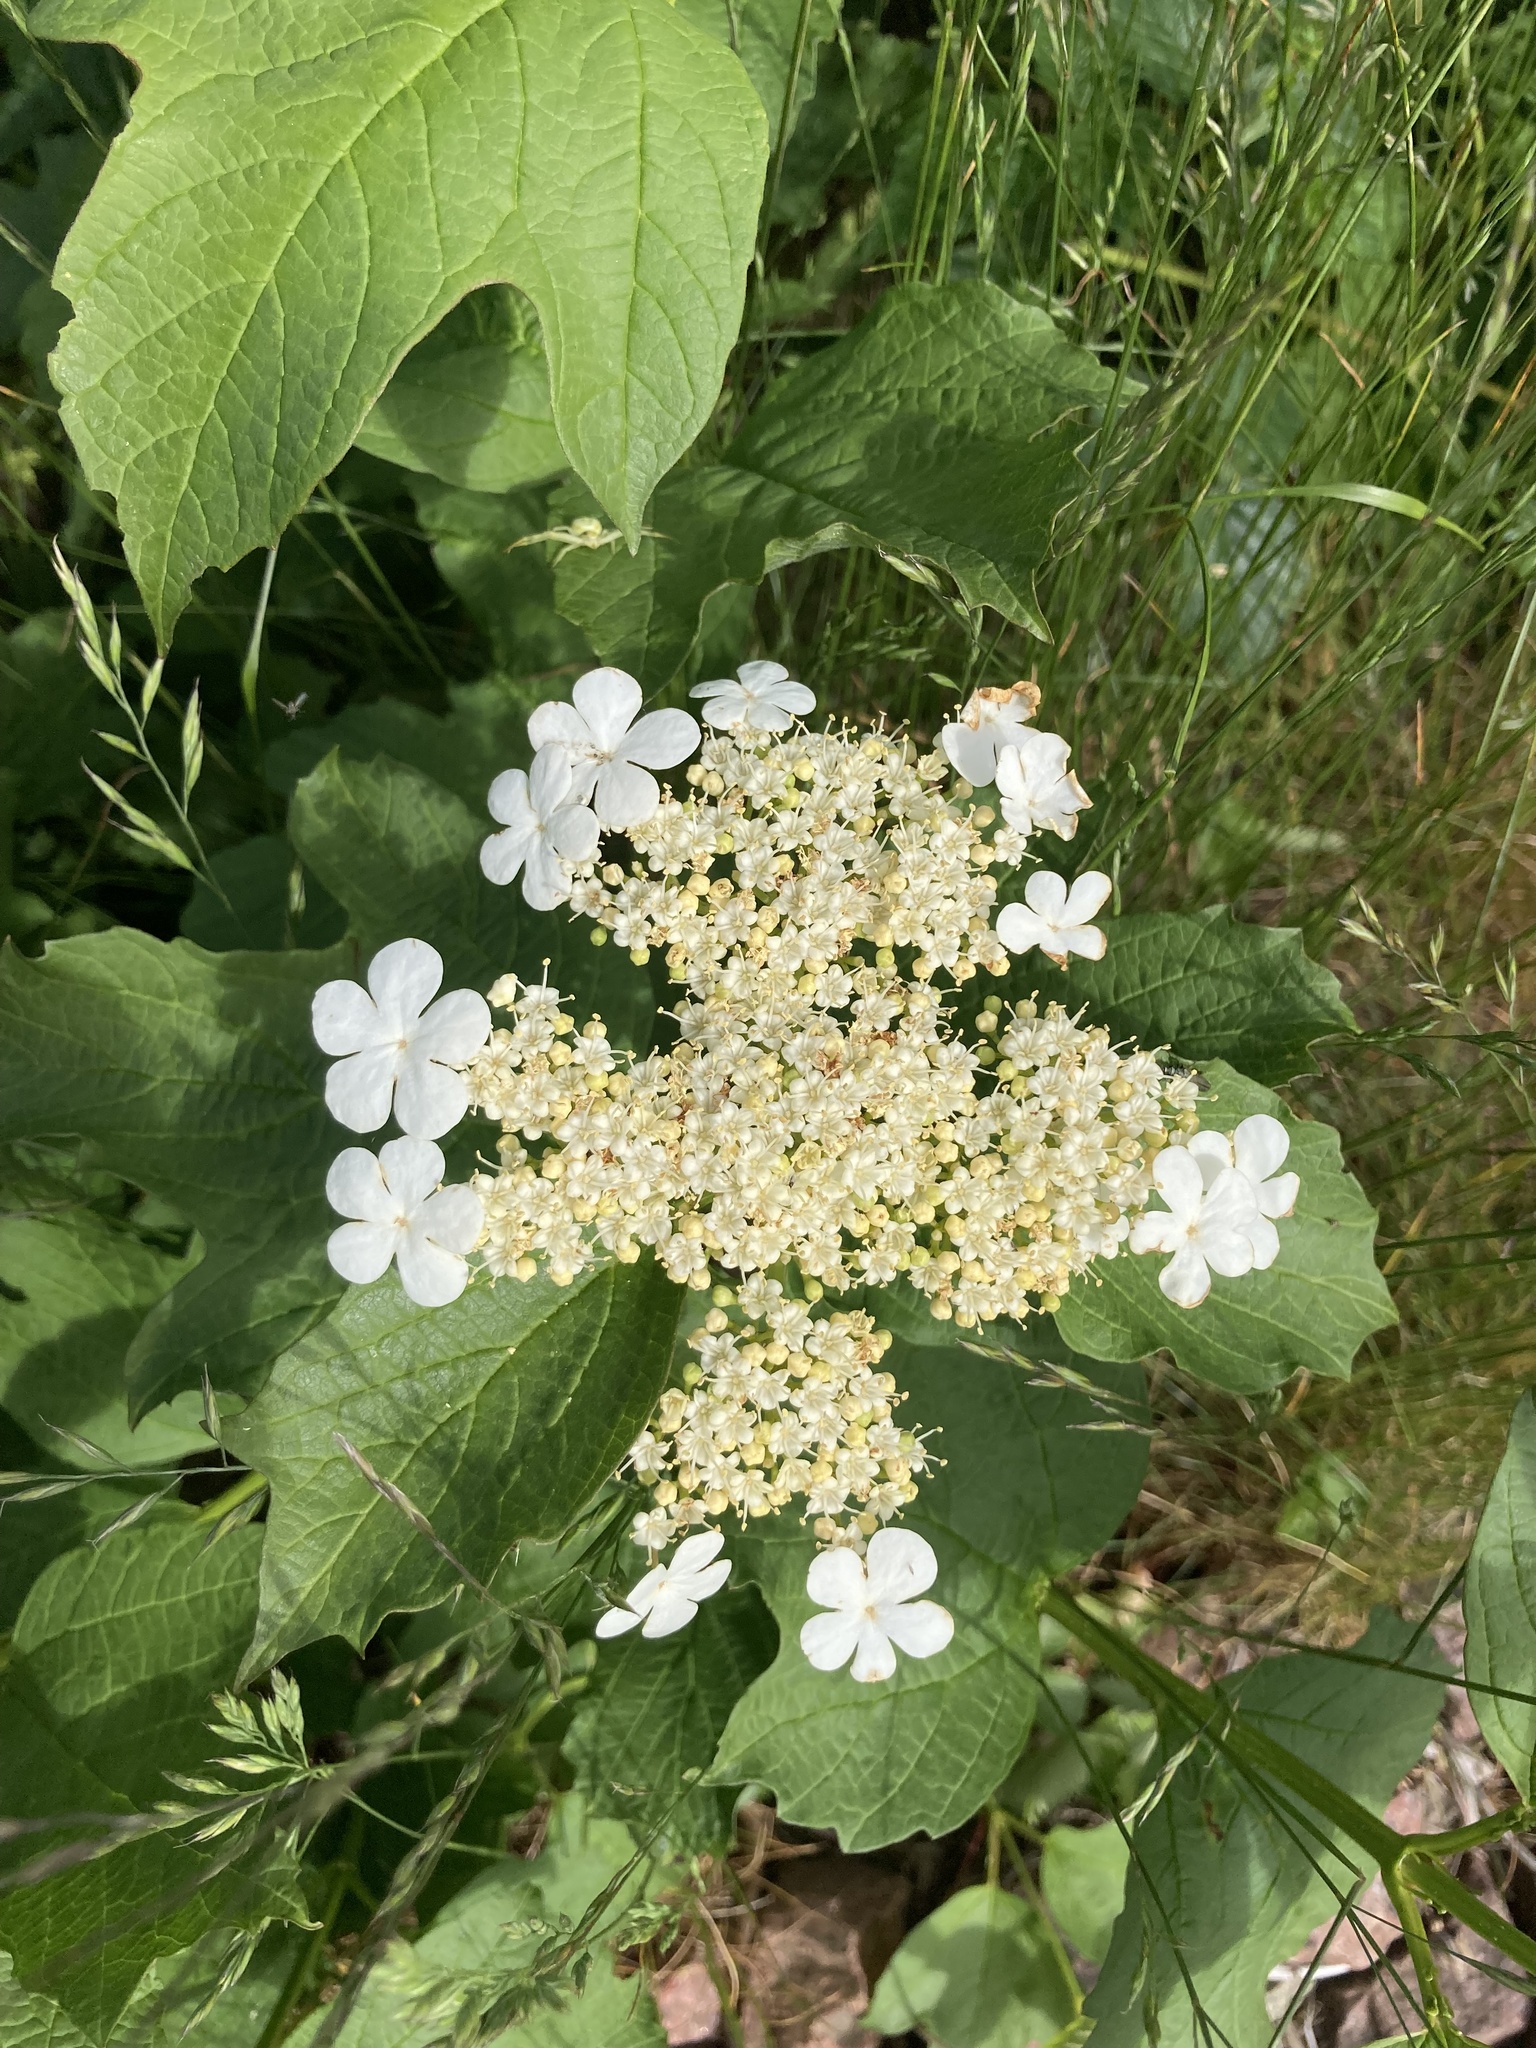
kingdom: Plantae
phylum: Tracheophyta
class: Magnoliopsida
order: Dipsacales
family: Viburnaceae
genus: Viburnum
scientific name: Viburnum opulus
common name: Guelder-rose
